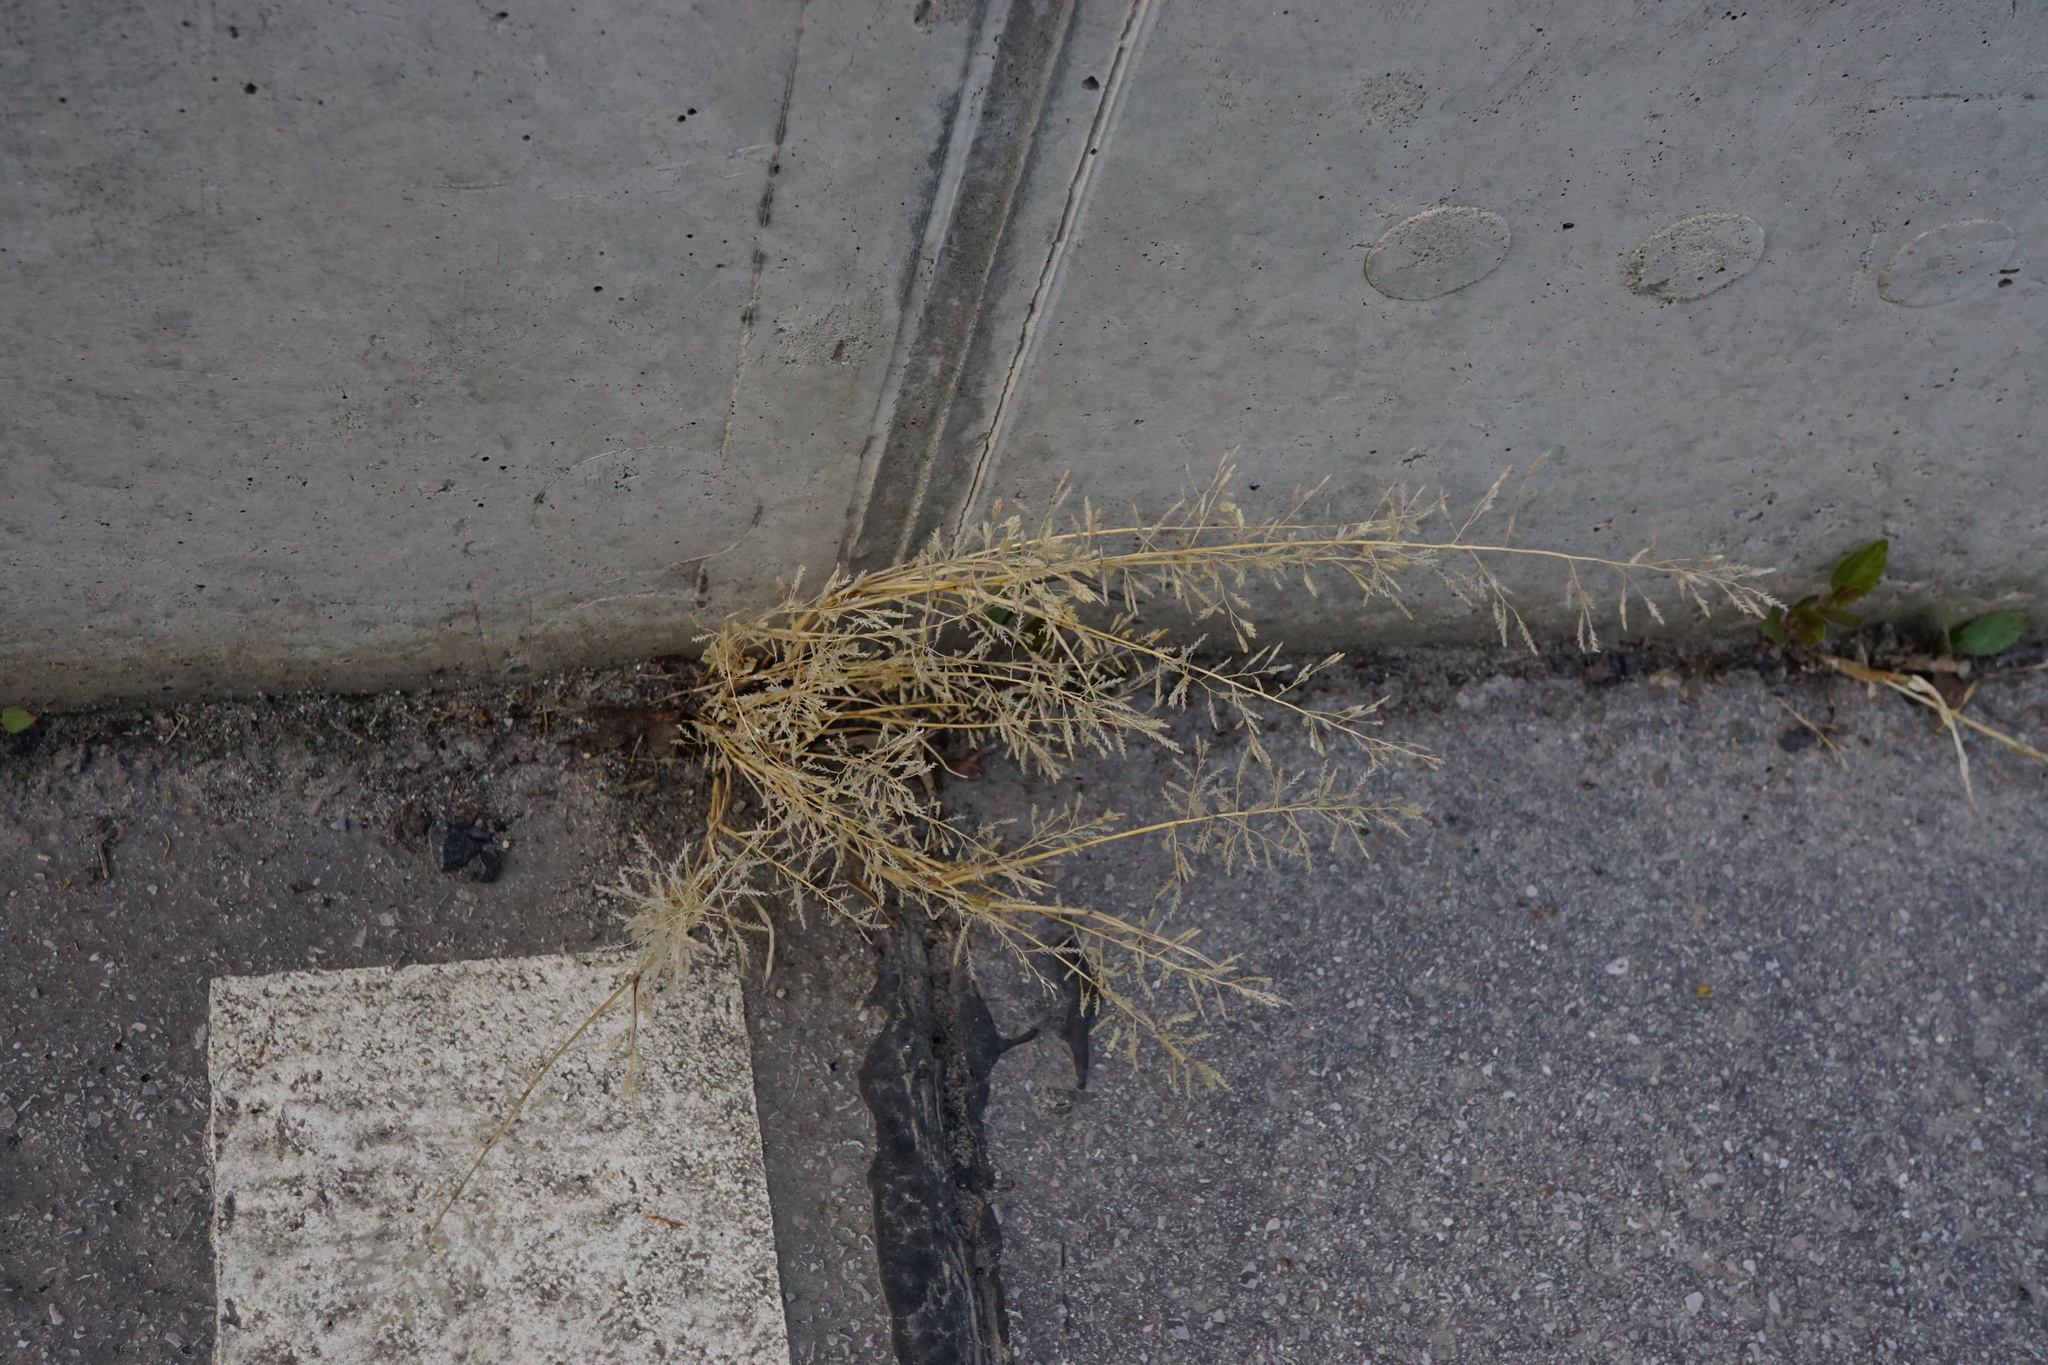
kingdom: Plantae
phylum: Tracheophyta
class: Liliopsida
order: Poales
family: Poaceae
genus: Eragrostis
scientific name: Eragrostis minor
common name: Small love-grass
